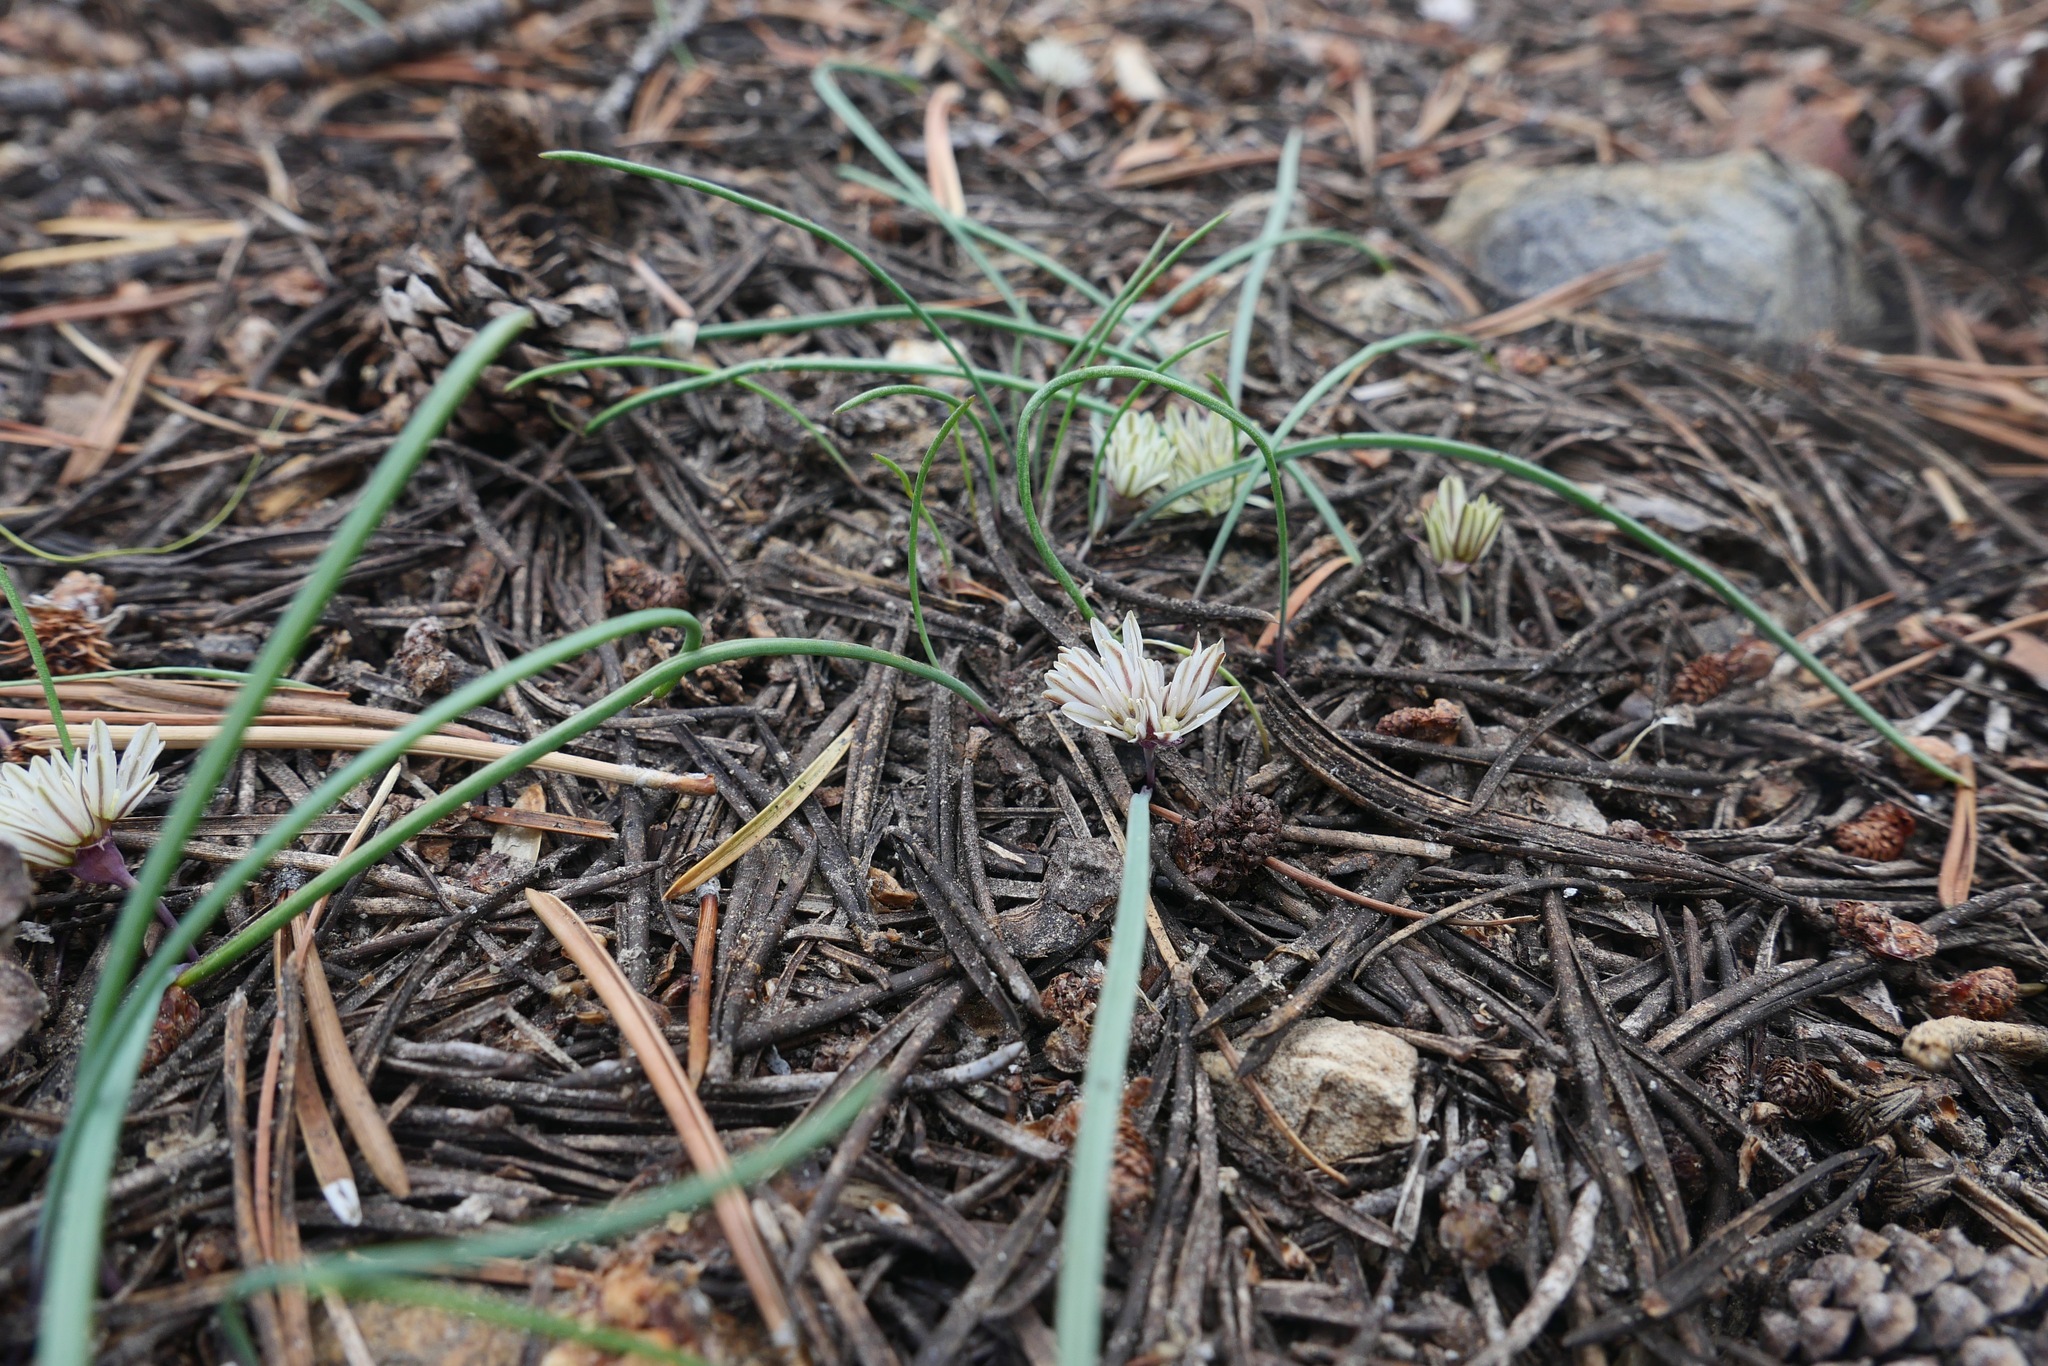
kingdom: Plantae
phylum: Tracheophyta
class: Liliopsida
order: Asparagales
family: Amaryllidaceae
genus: Allium
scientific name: Allium obtusum
